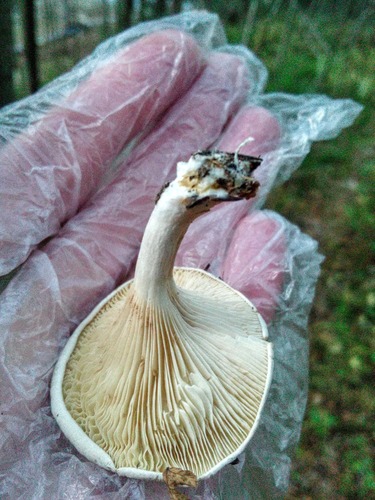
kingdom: Fungi
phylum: Basidiomycota
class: Agaricomycetes
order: Agaricales
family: Entolomataceae
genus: Clitopilus
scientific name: Clitopilus
